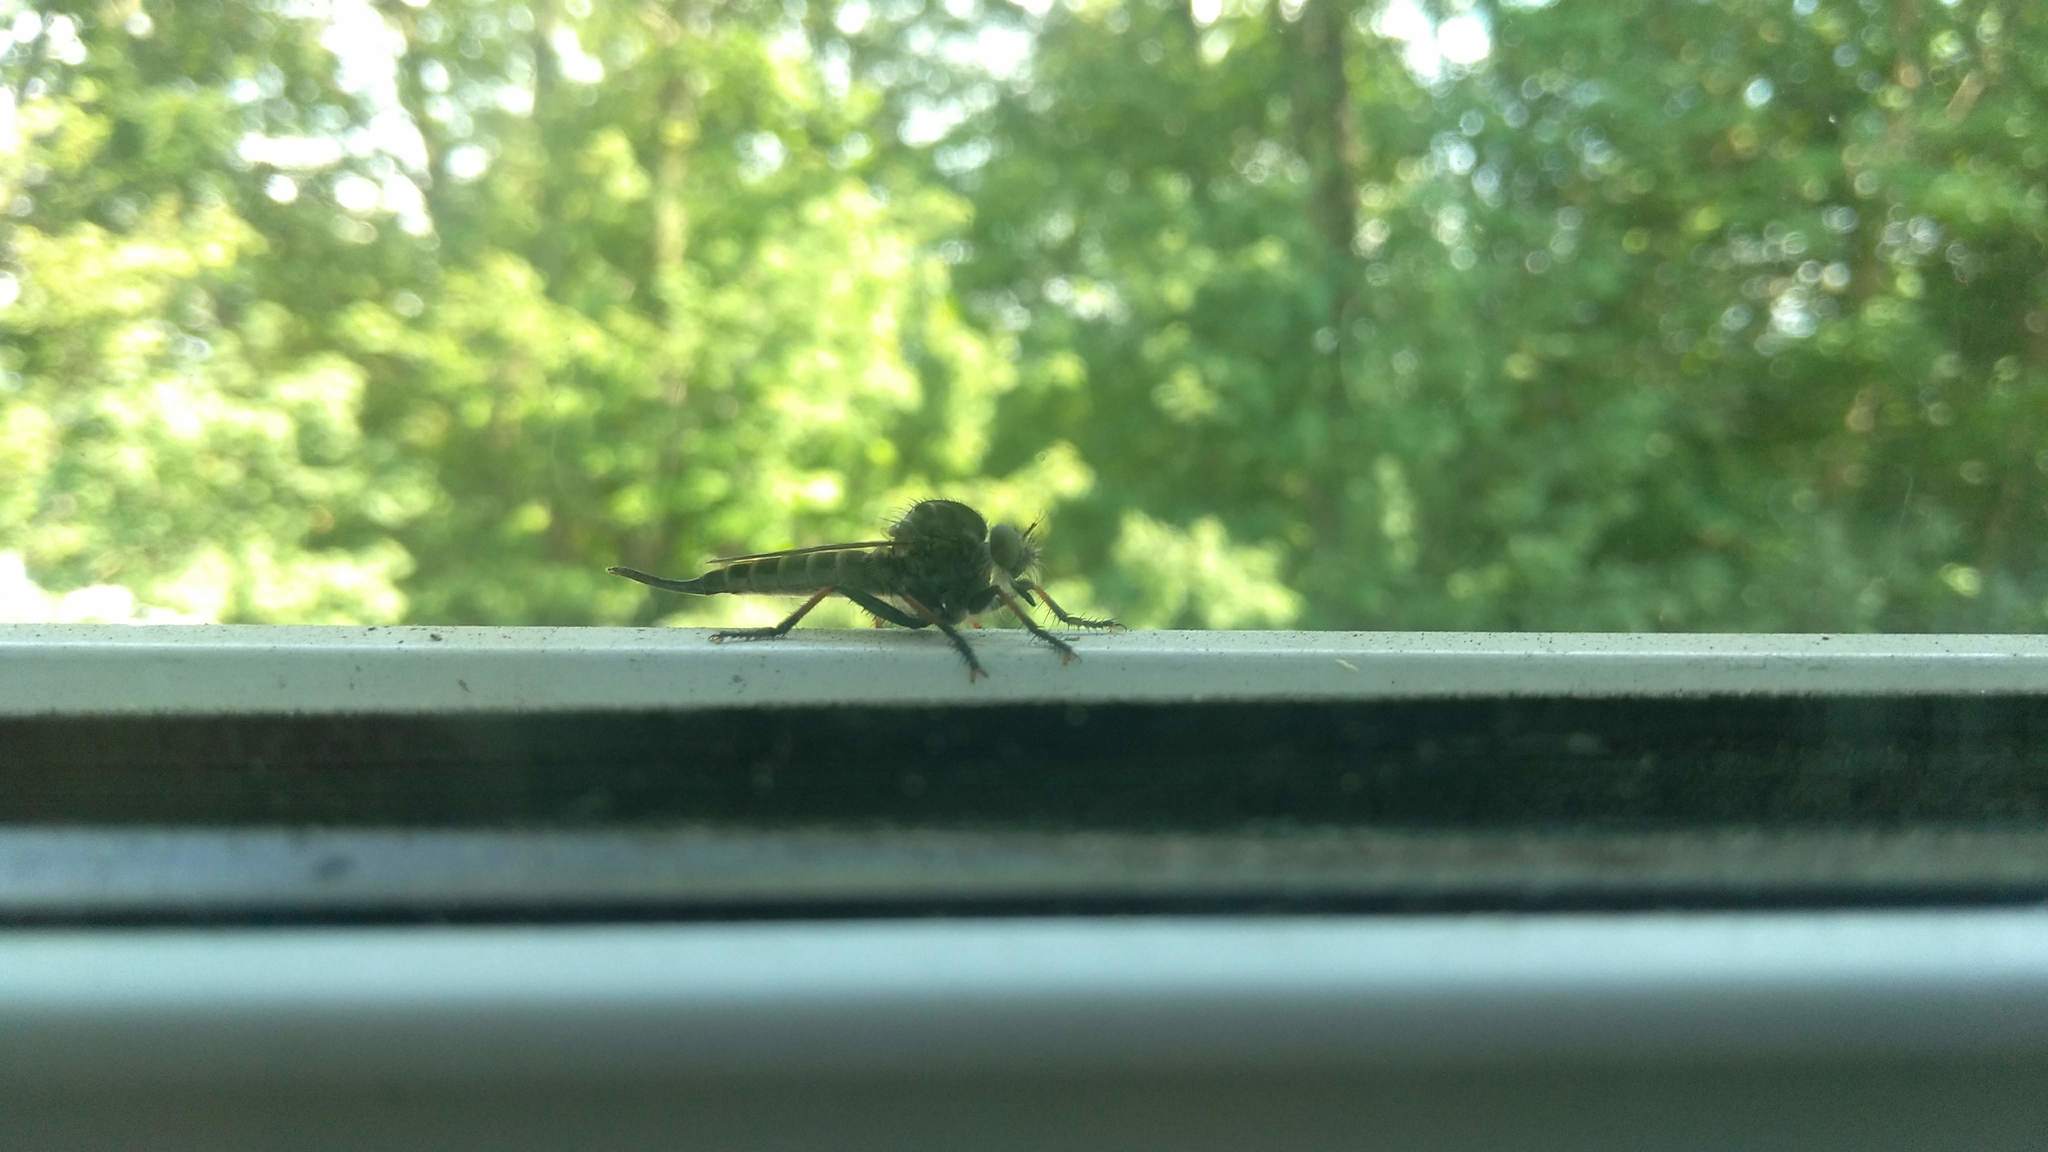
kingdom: Animalia
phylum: Arthropoda
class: Insecta
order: Diptera
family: Asilidae
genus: Efferia
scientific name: Efferia aestuans
